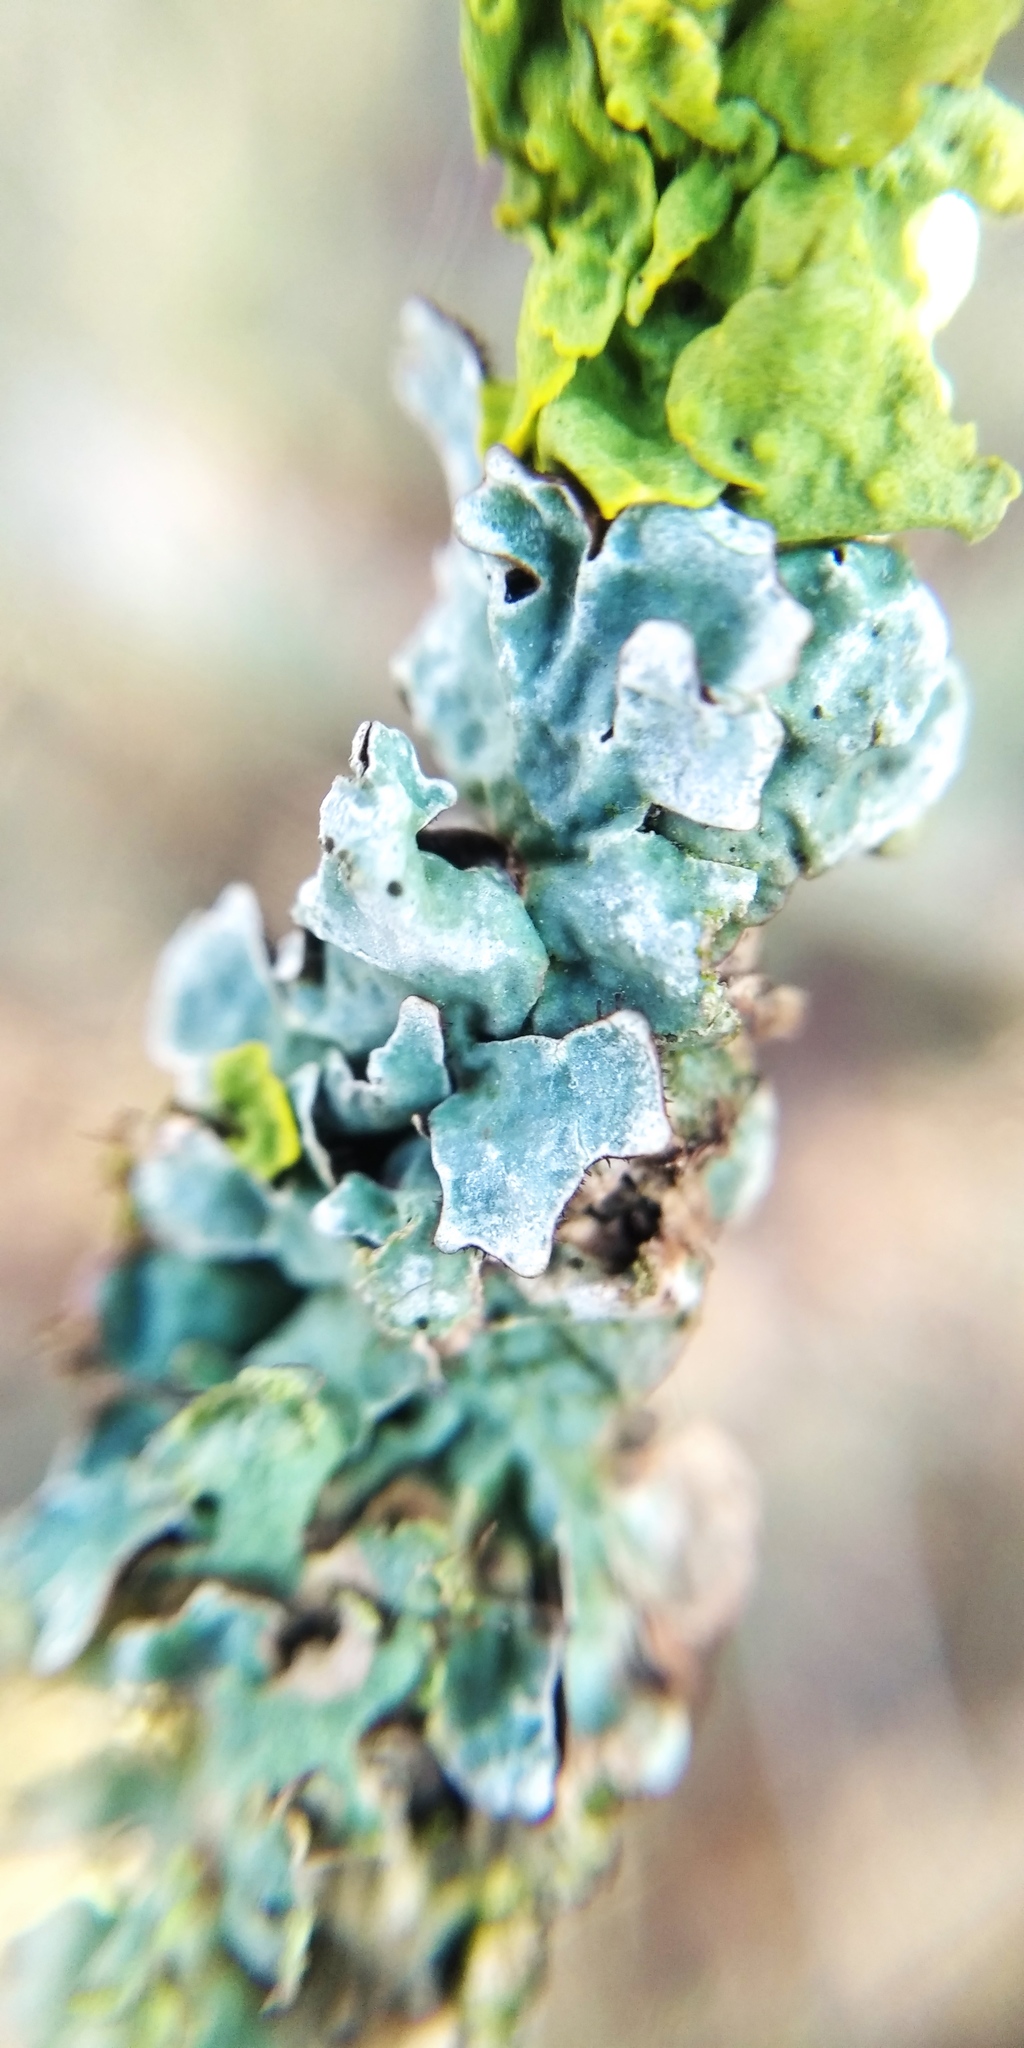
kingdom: Fungi
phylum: Ascomycota
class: Lecanoromycetes
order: Lecanorales
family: Parmeliaceae
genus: Parmelia
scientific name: Parmelia sulcata
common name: Netted shield lichen
